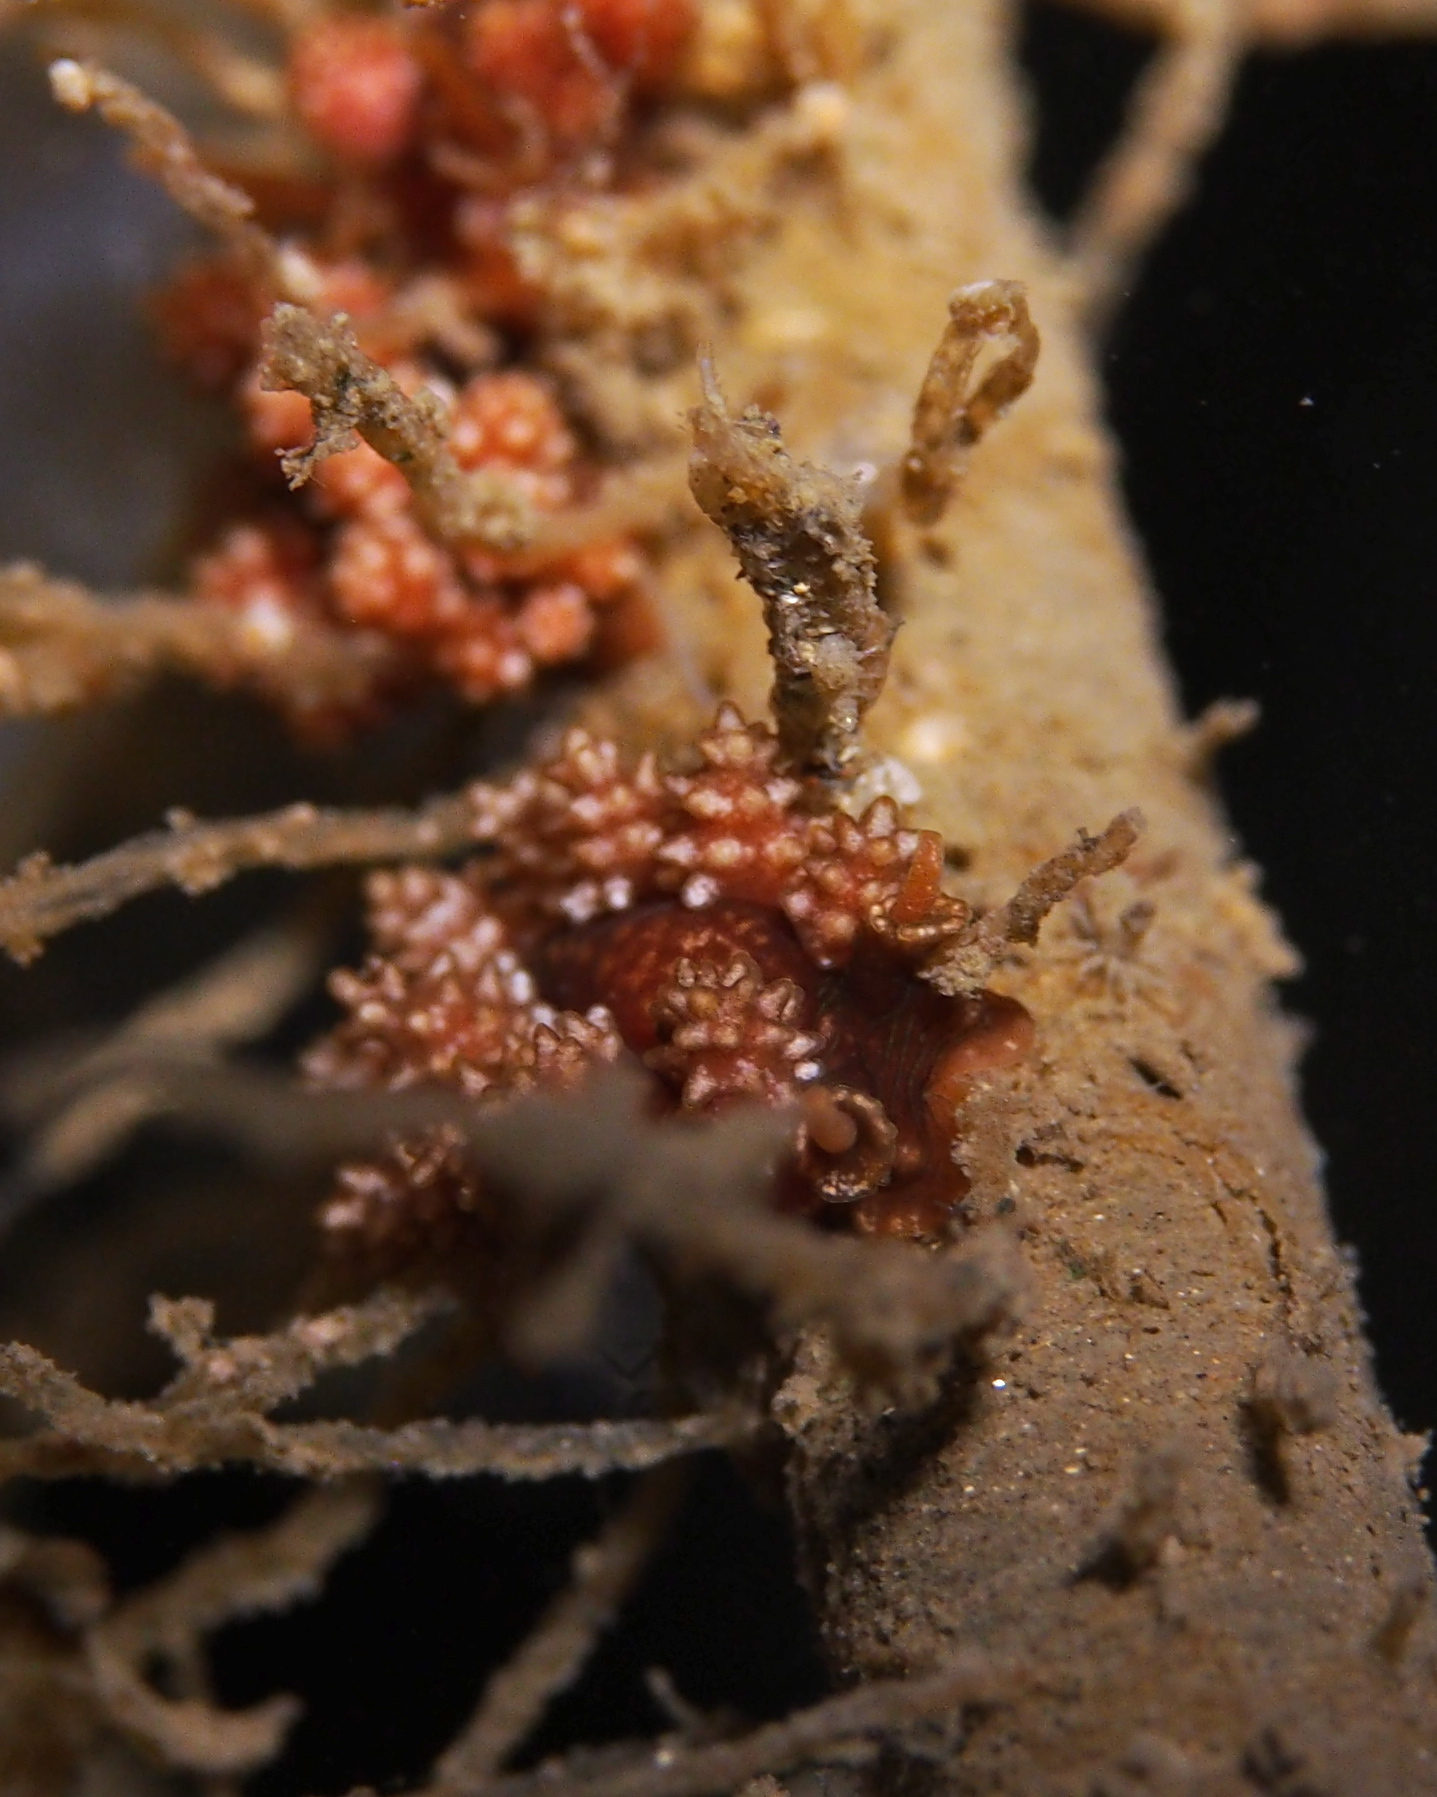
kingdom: Animalia
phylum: Mollusca
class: Gastropoda
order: Nudibranchia
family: Dotidae
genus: Doto
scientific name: Doto fragilis
